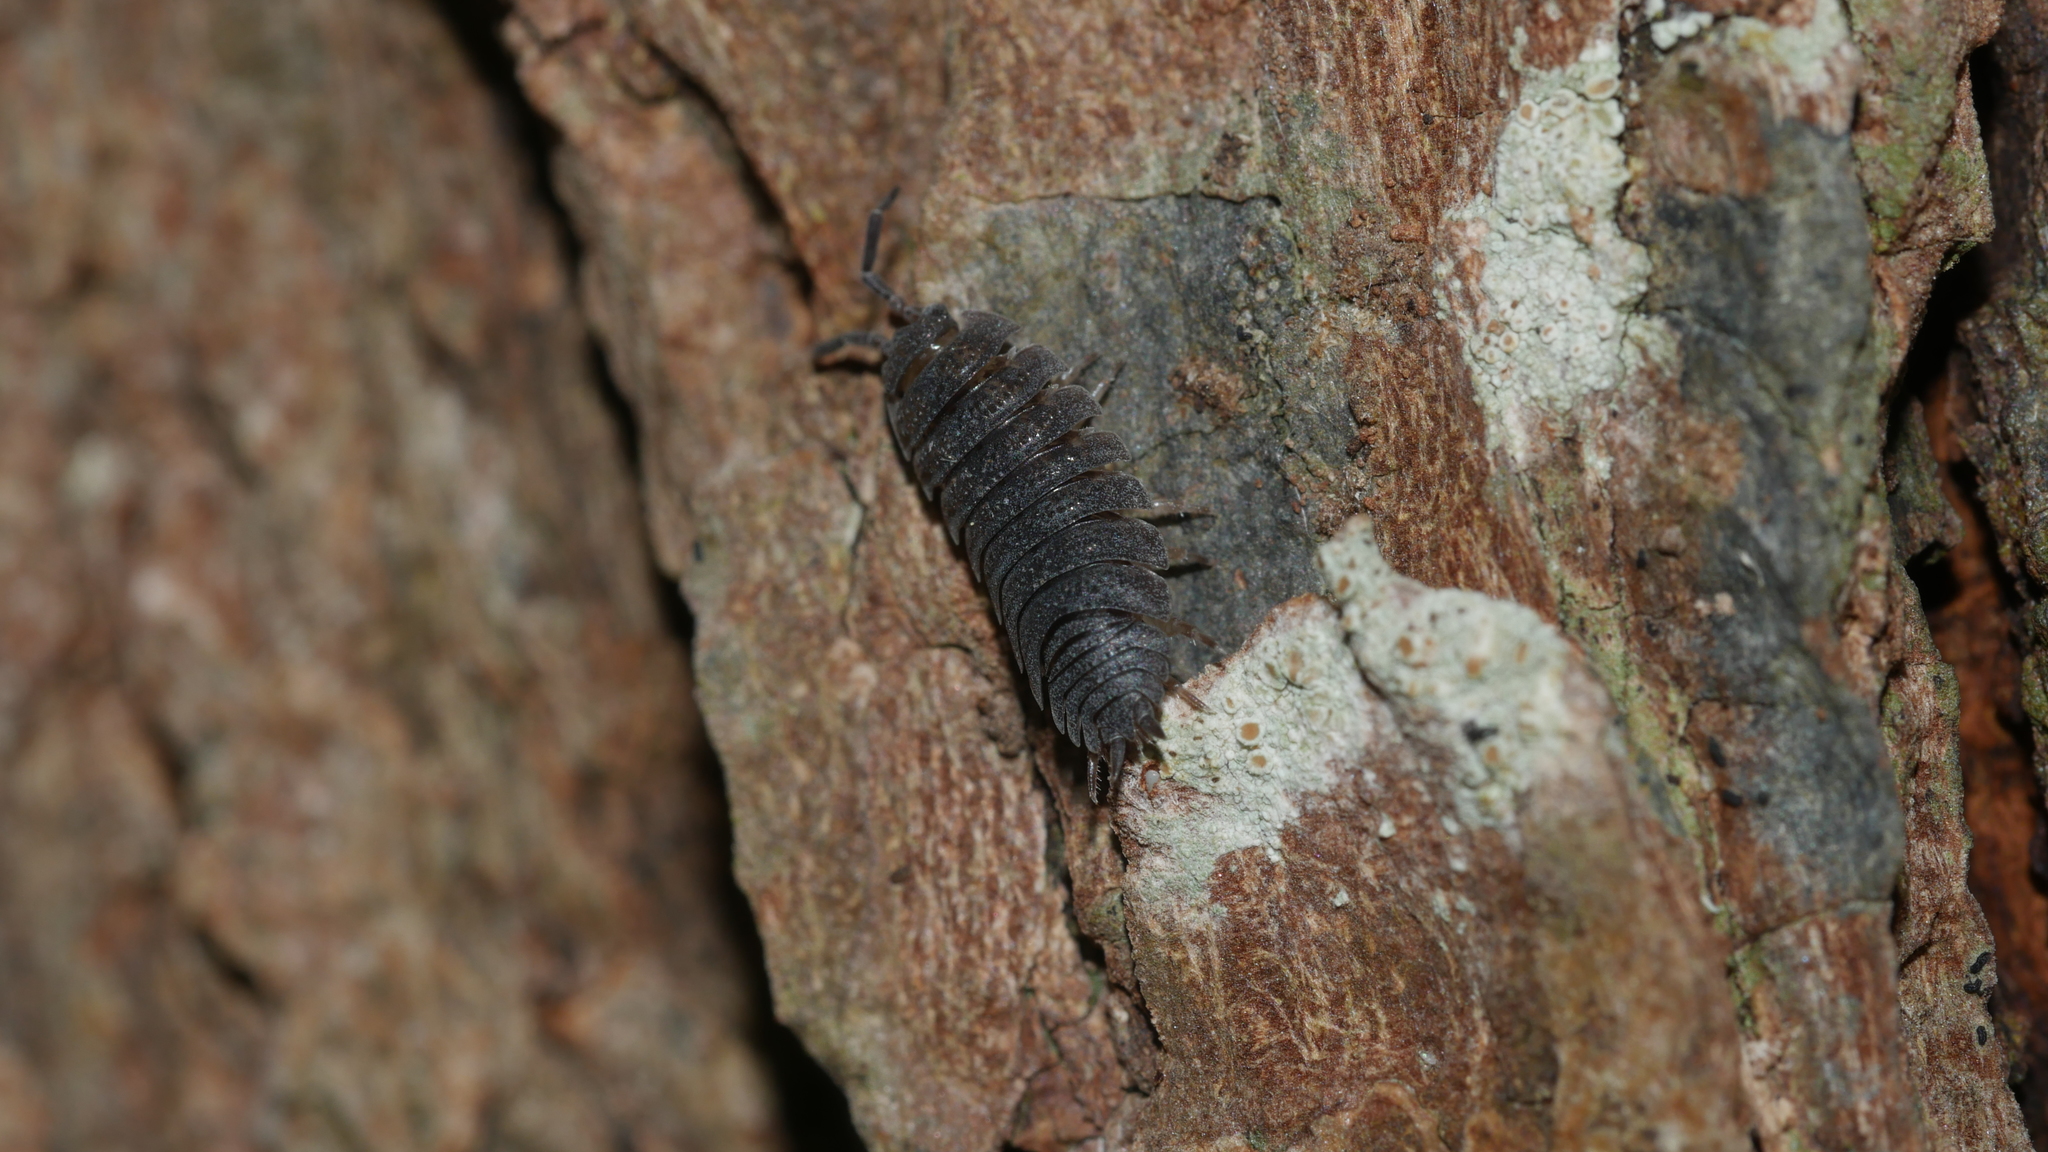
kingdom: Animalia
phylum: Arthropoda
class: Malacostraca
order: Isopoda
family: Porcellionidae
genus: Porcellio
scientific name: Porcellio scaber
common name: Common rough woodlouse
